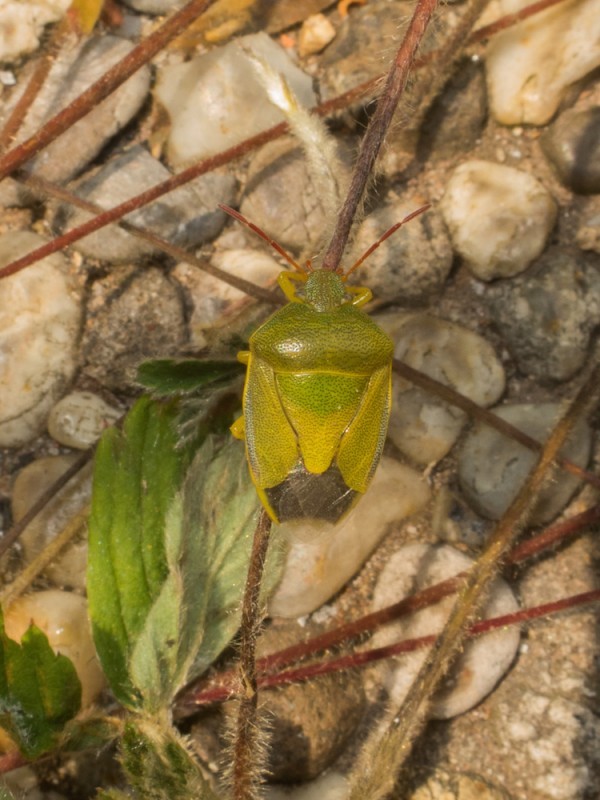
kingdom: Animalia
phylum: Arthropoda
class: Insecta
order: Hemiptera
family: Pentatomidae
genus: Piezodorus
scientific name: Piezodorus lituratus
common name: Stink bug
